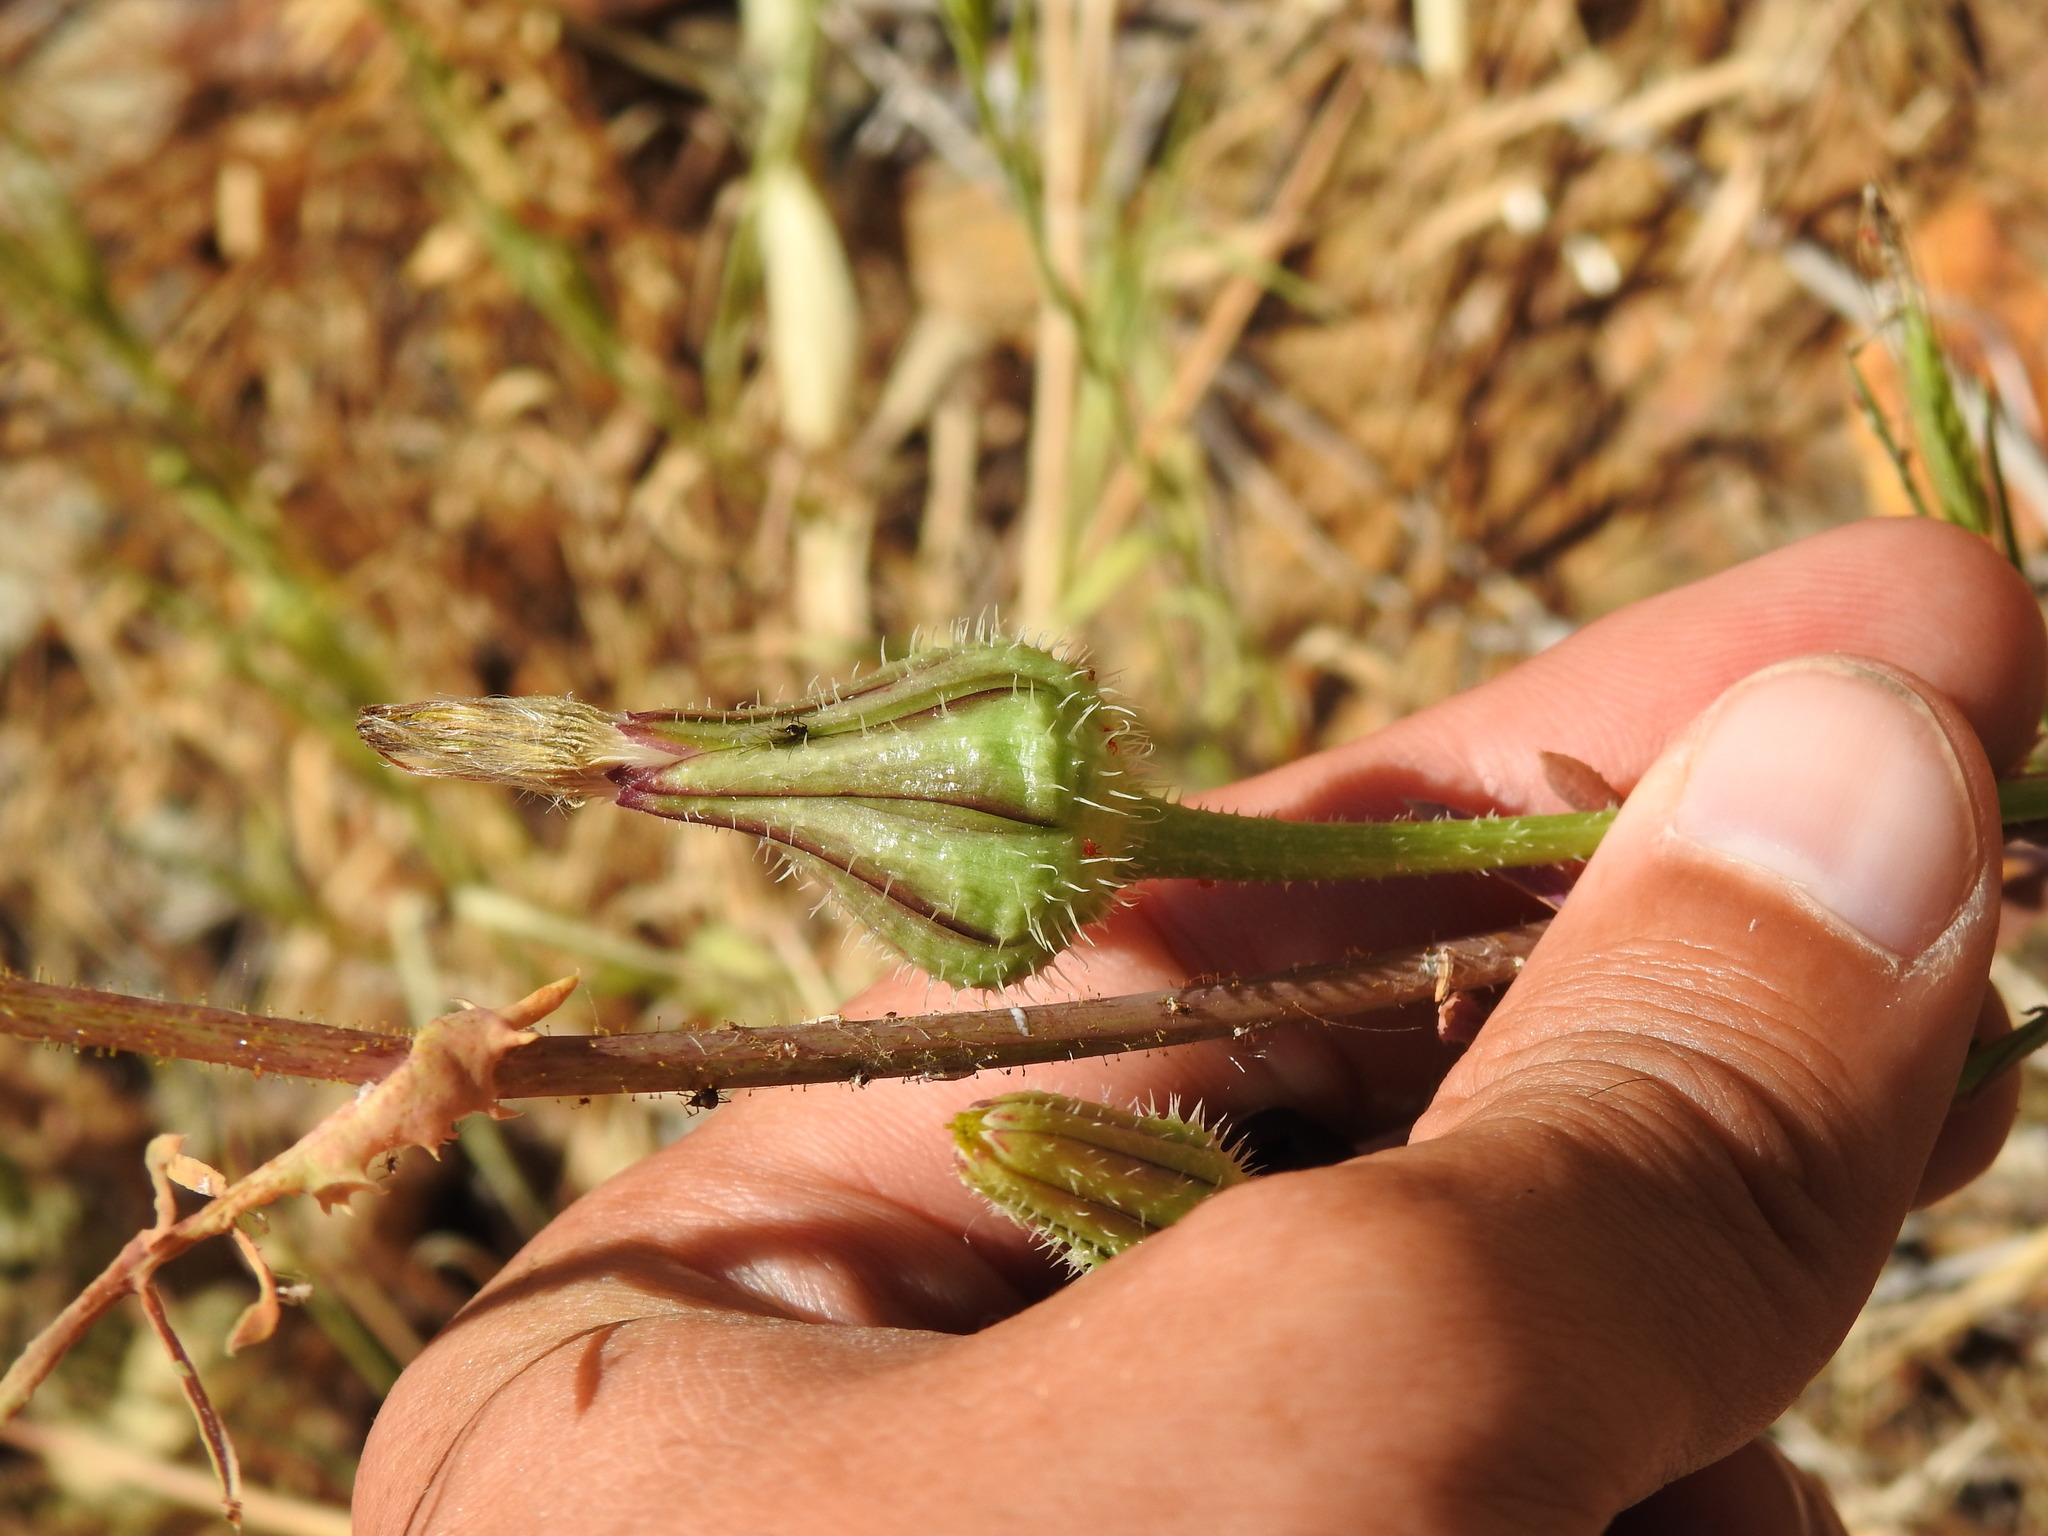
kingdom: Plantae
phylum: Tracheophyta
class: Magnoliopsida
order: Asterales
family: Asteraceae
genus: Urospermum
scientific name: Urospermum picroides
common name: False hawkbit
